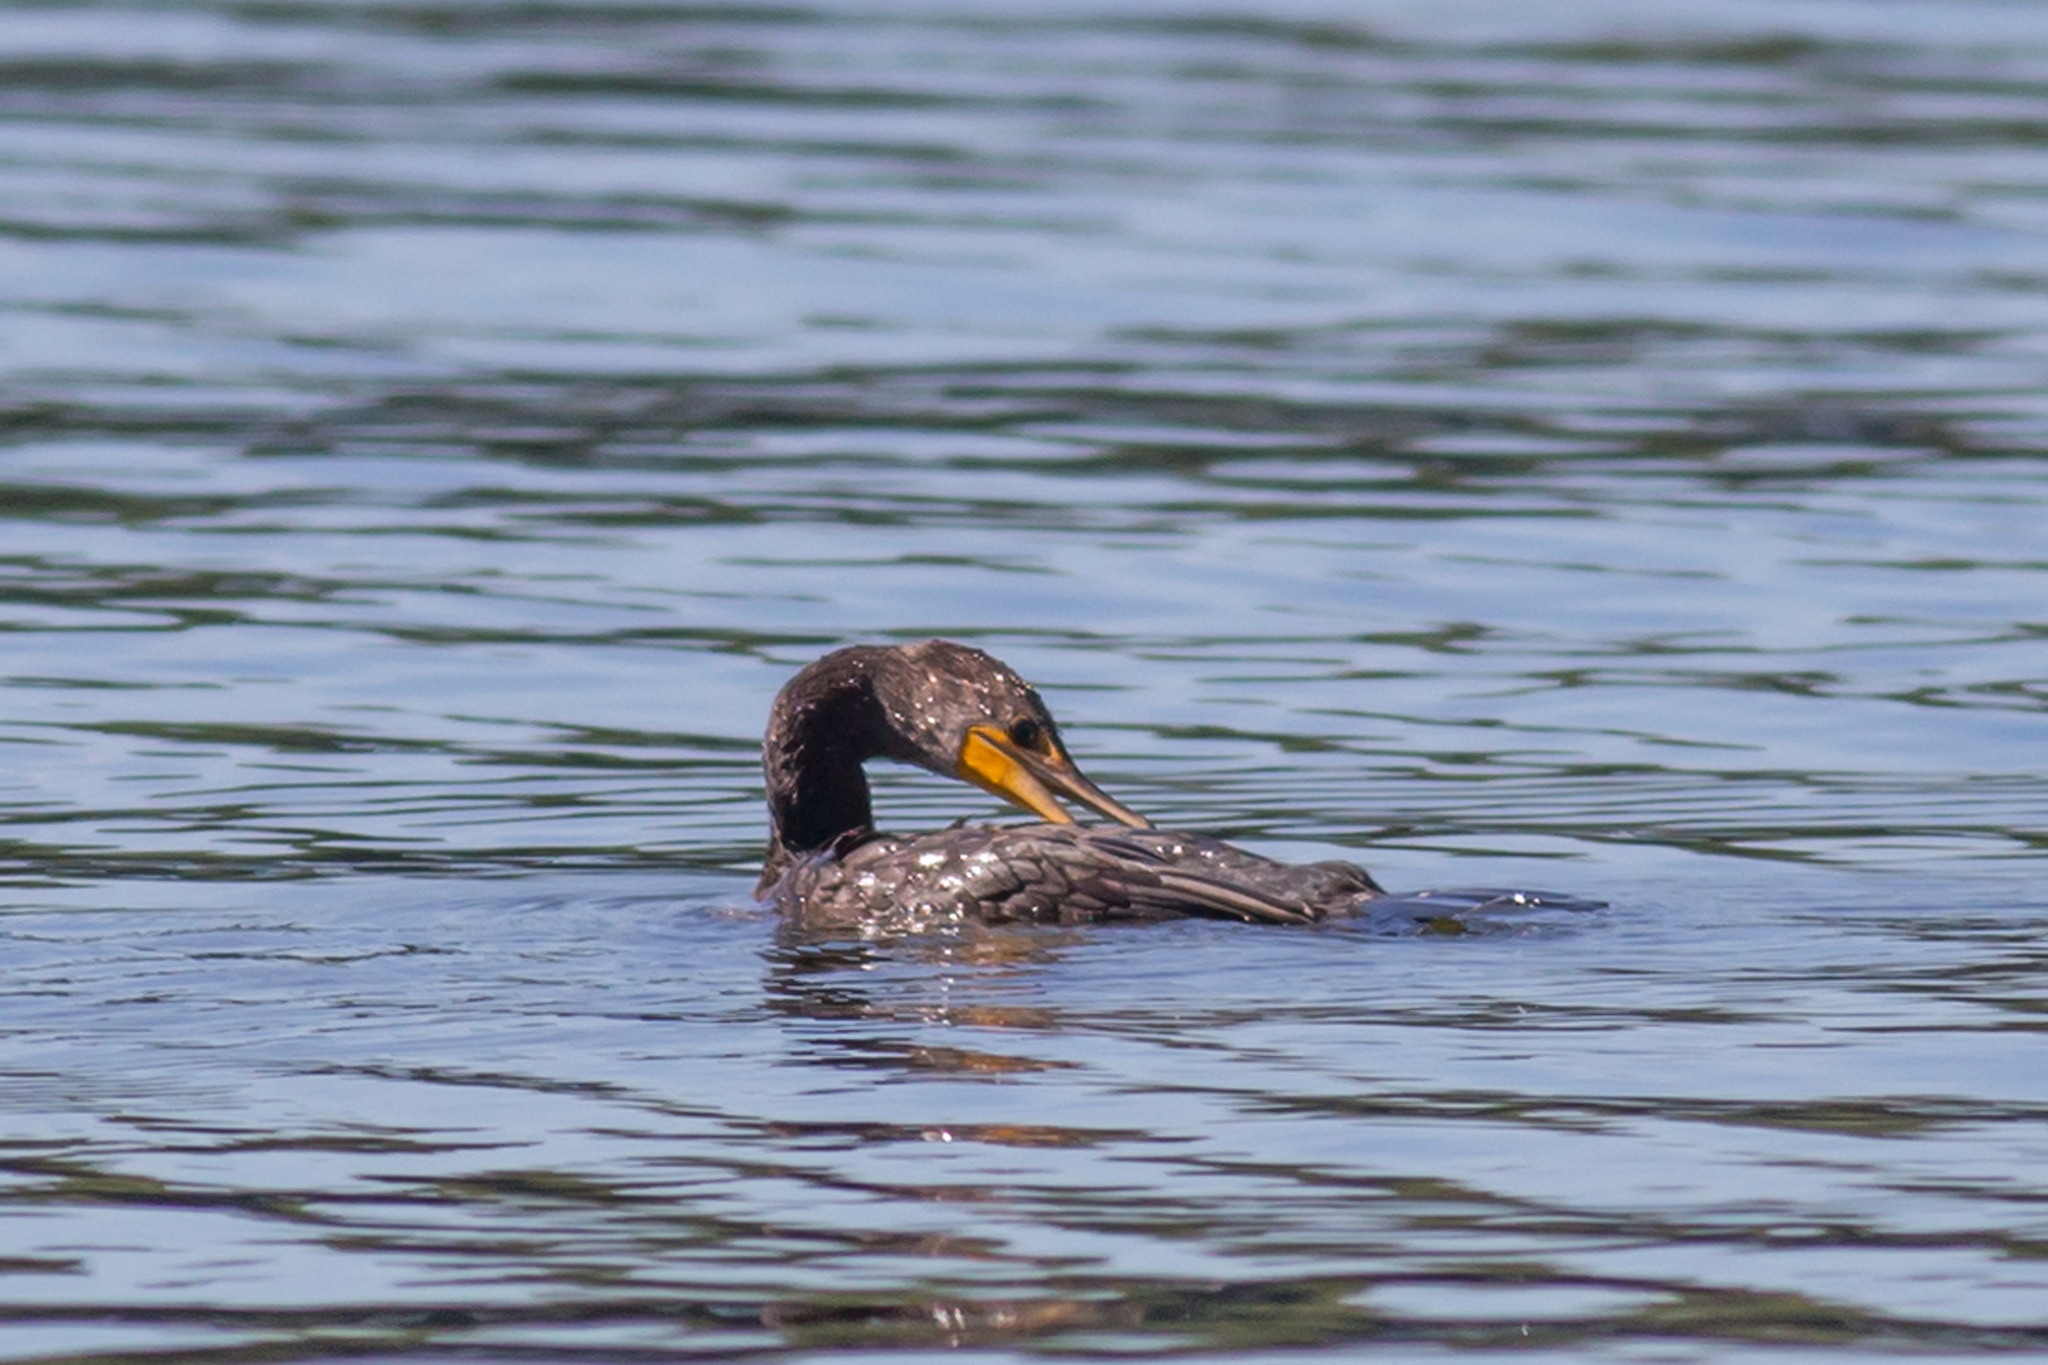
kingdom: Animalia
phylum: Chordata
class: Aves
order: Suliformes
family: Phalacrocoracidae
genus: Phalacrocorax
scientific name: Phalacrocorax auritus
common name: Double-crested cormorant
